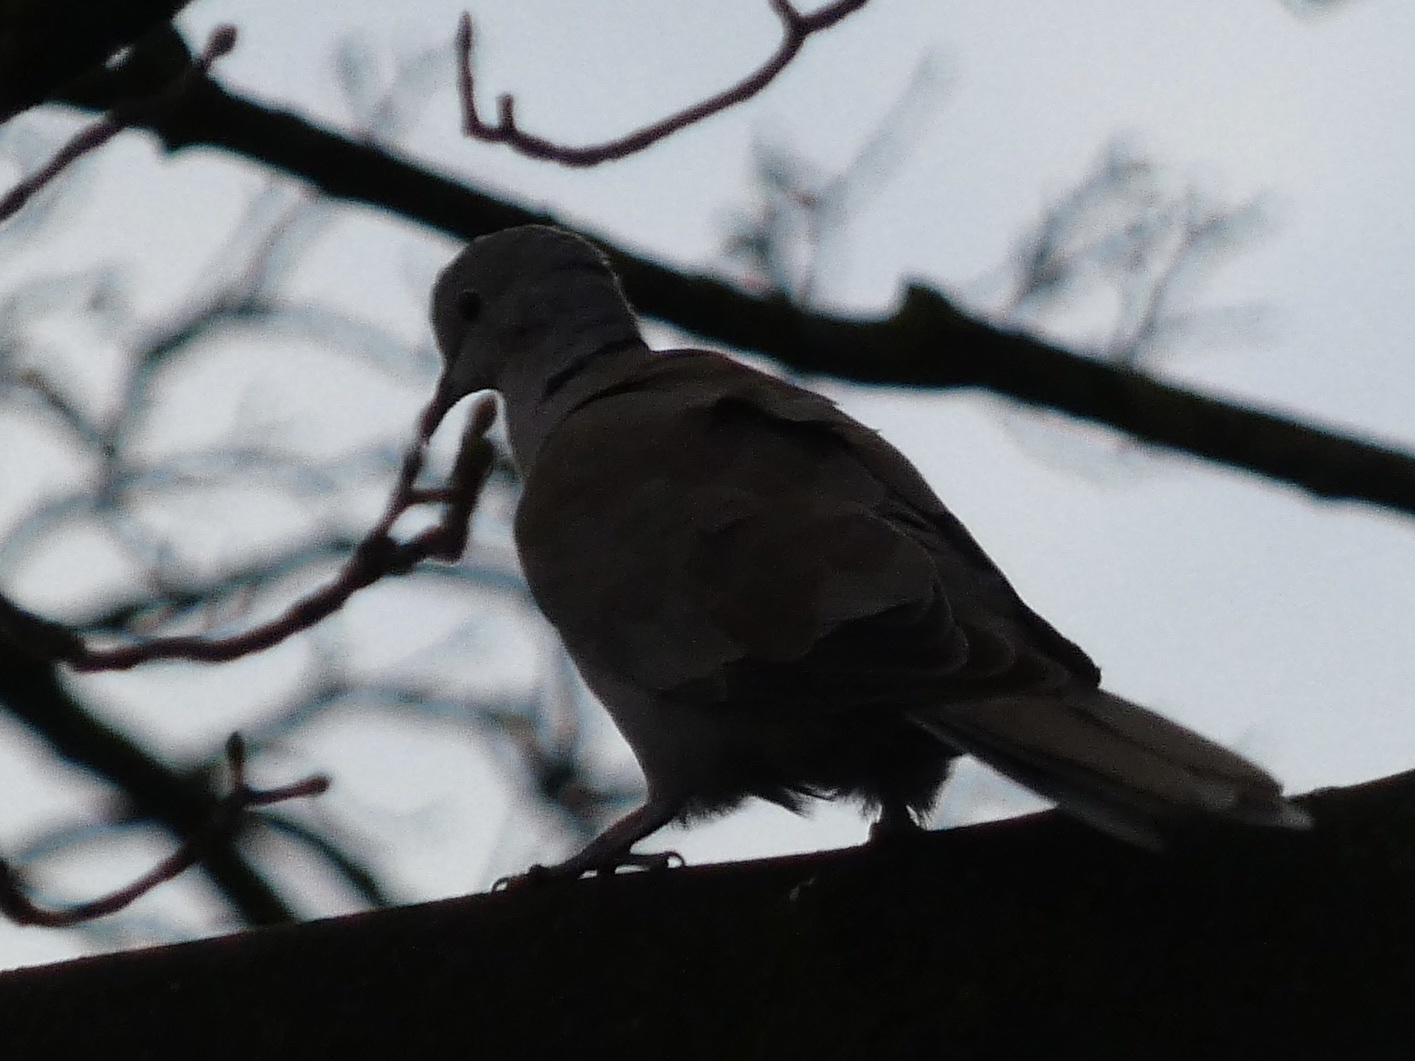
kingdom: Animalia
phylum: Chordata
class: Aves
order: Columbiformes
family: Columbidae
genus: Streptopelia
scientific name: Streptopelia decaocto
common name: Eurasian collared dove
